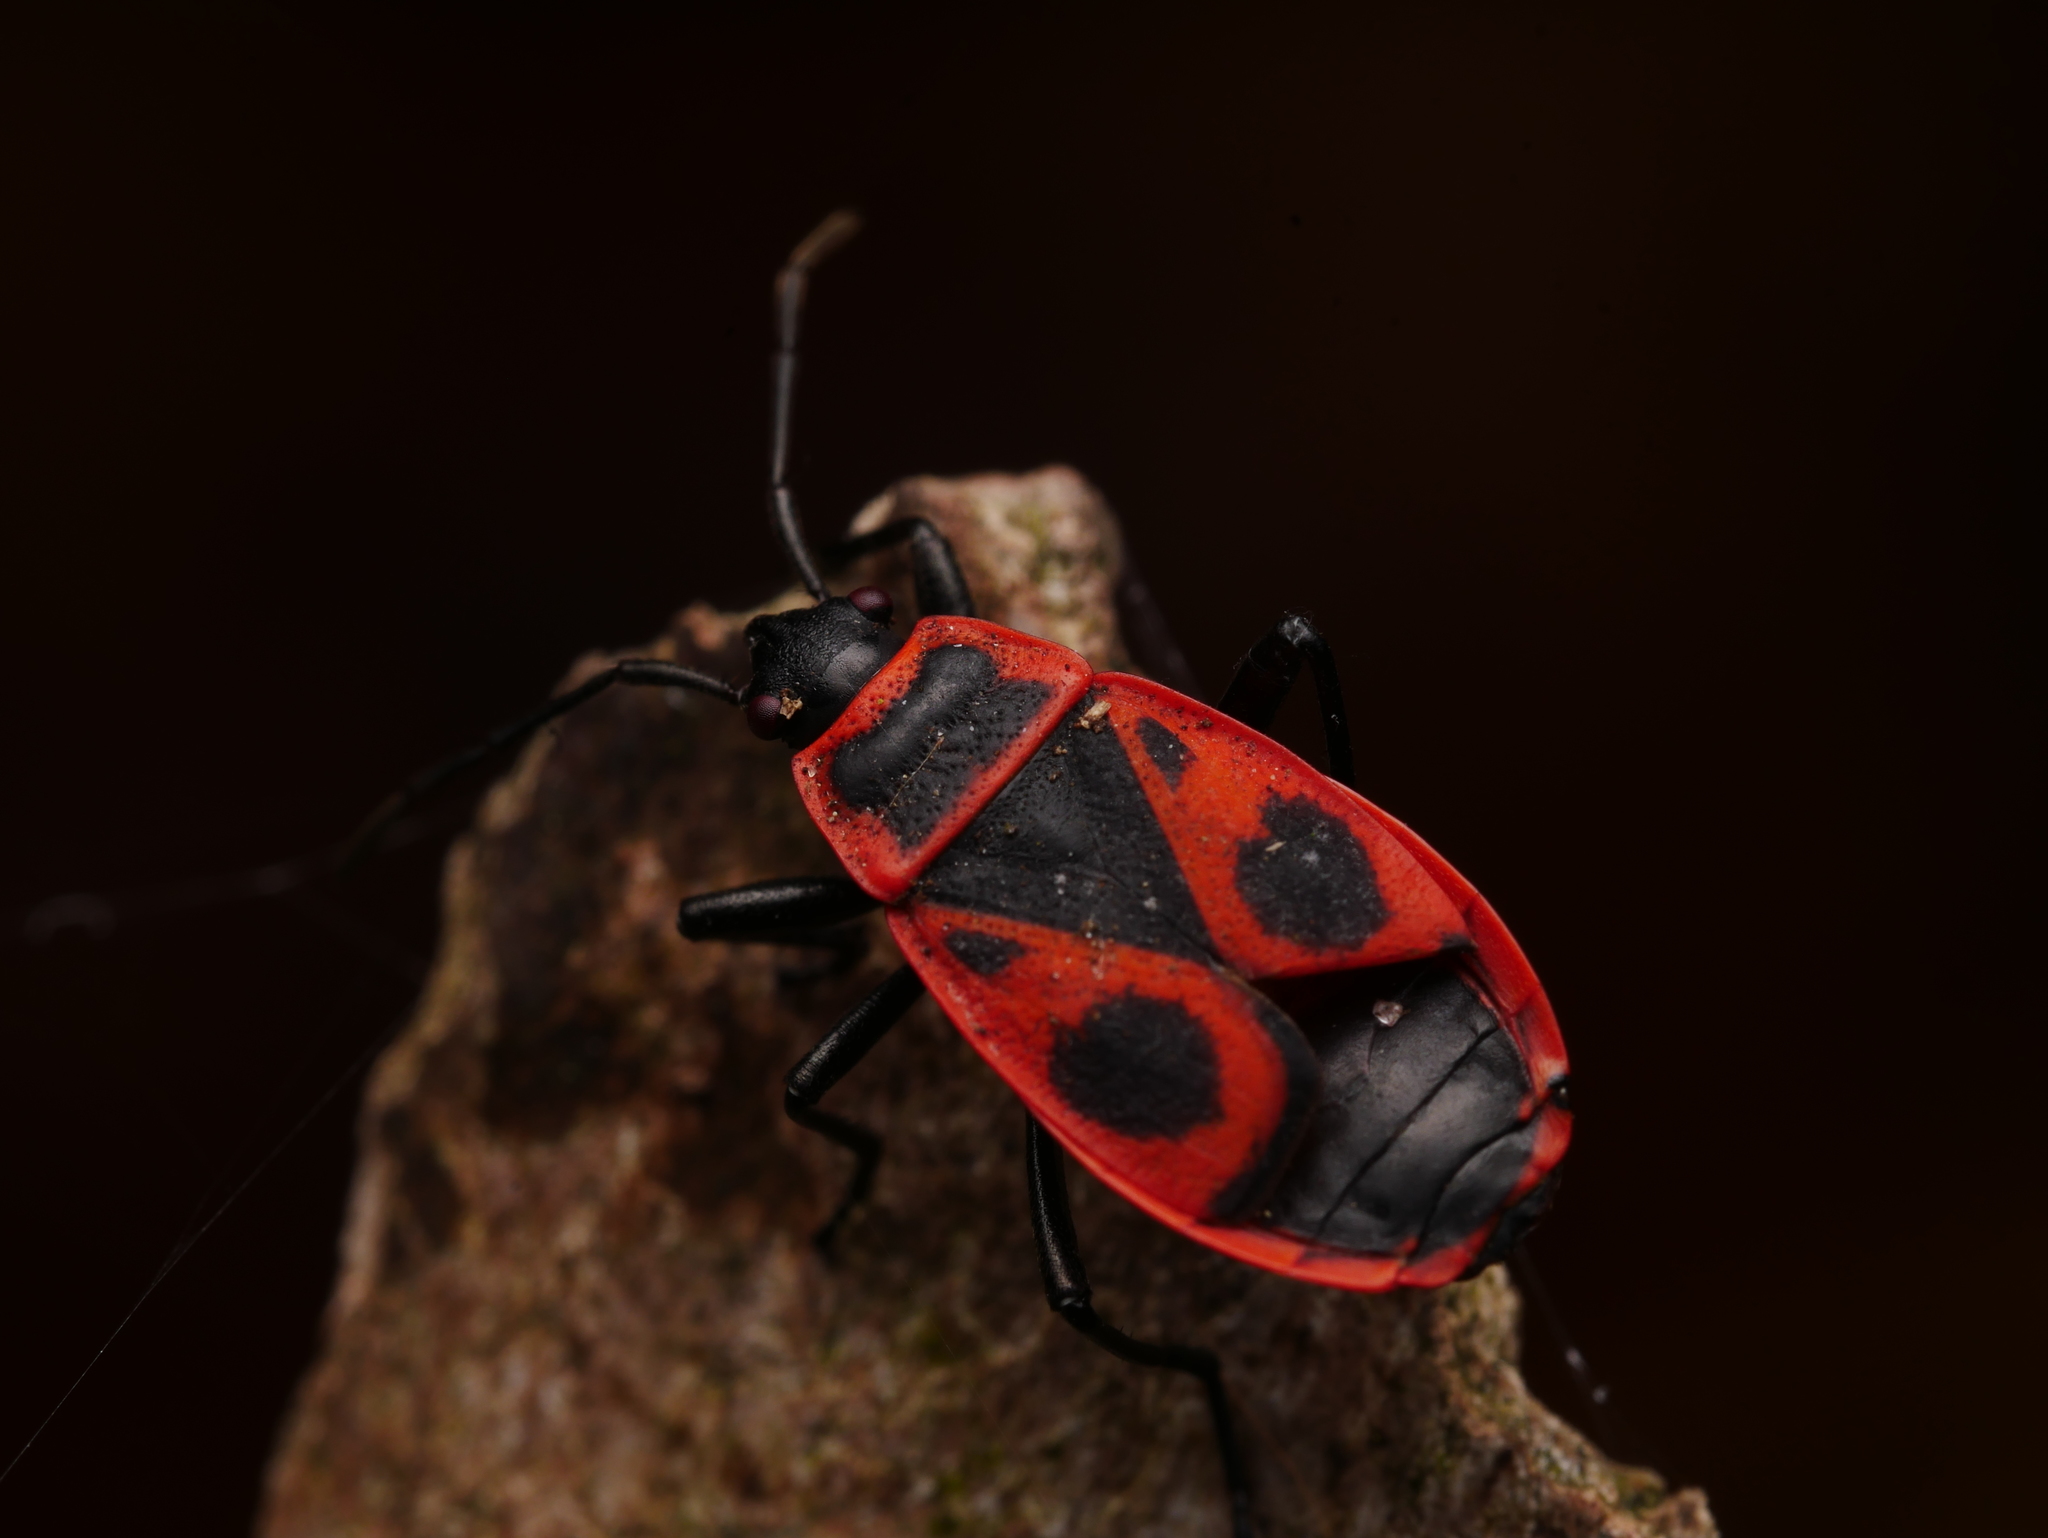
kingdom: Animalia
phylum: Arthropoda
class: Insecta
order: Hemiptera
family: Pyrrhocoridae
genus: Pyrrhocoris
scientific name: Pyrrhocoris apterus
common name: Firebug
